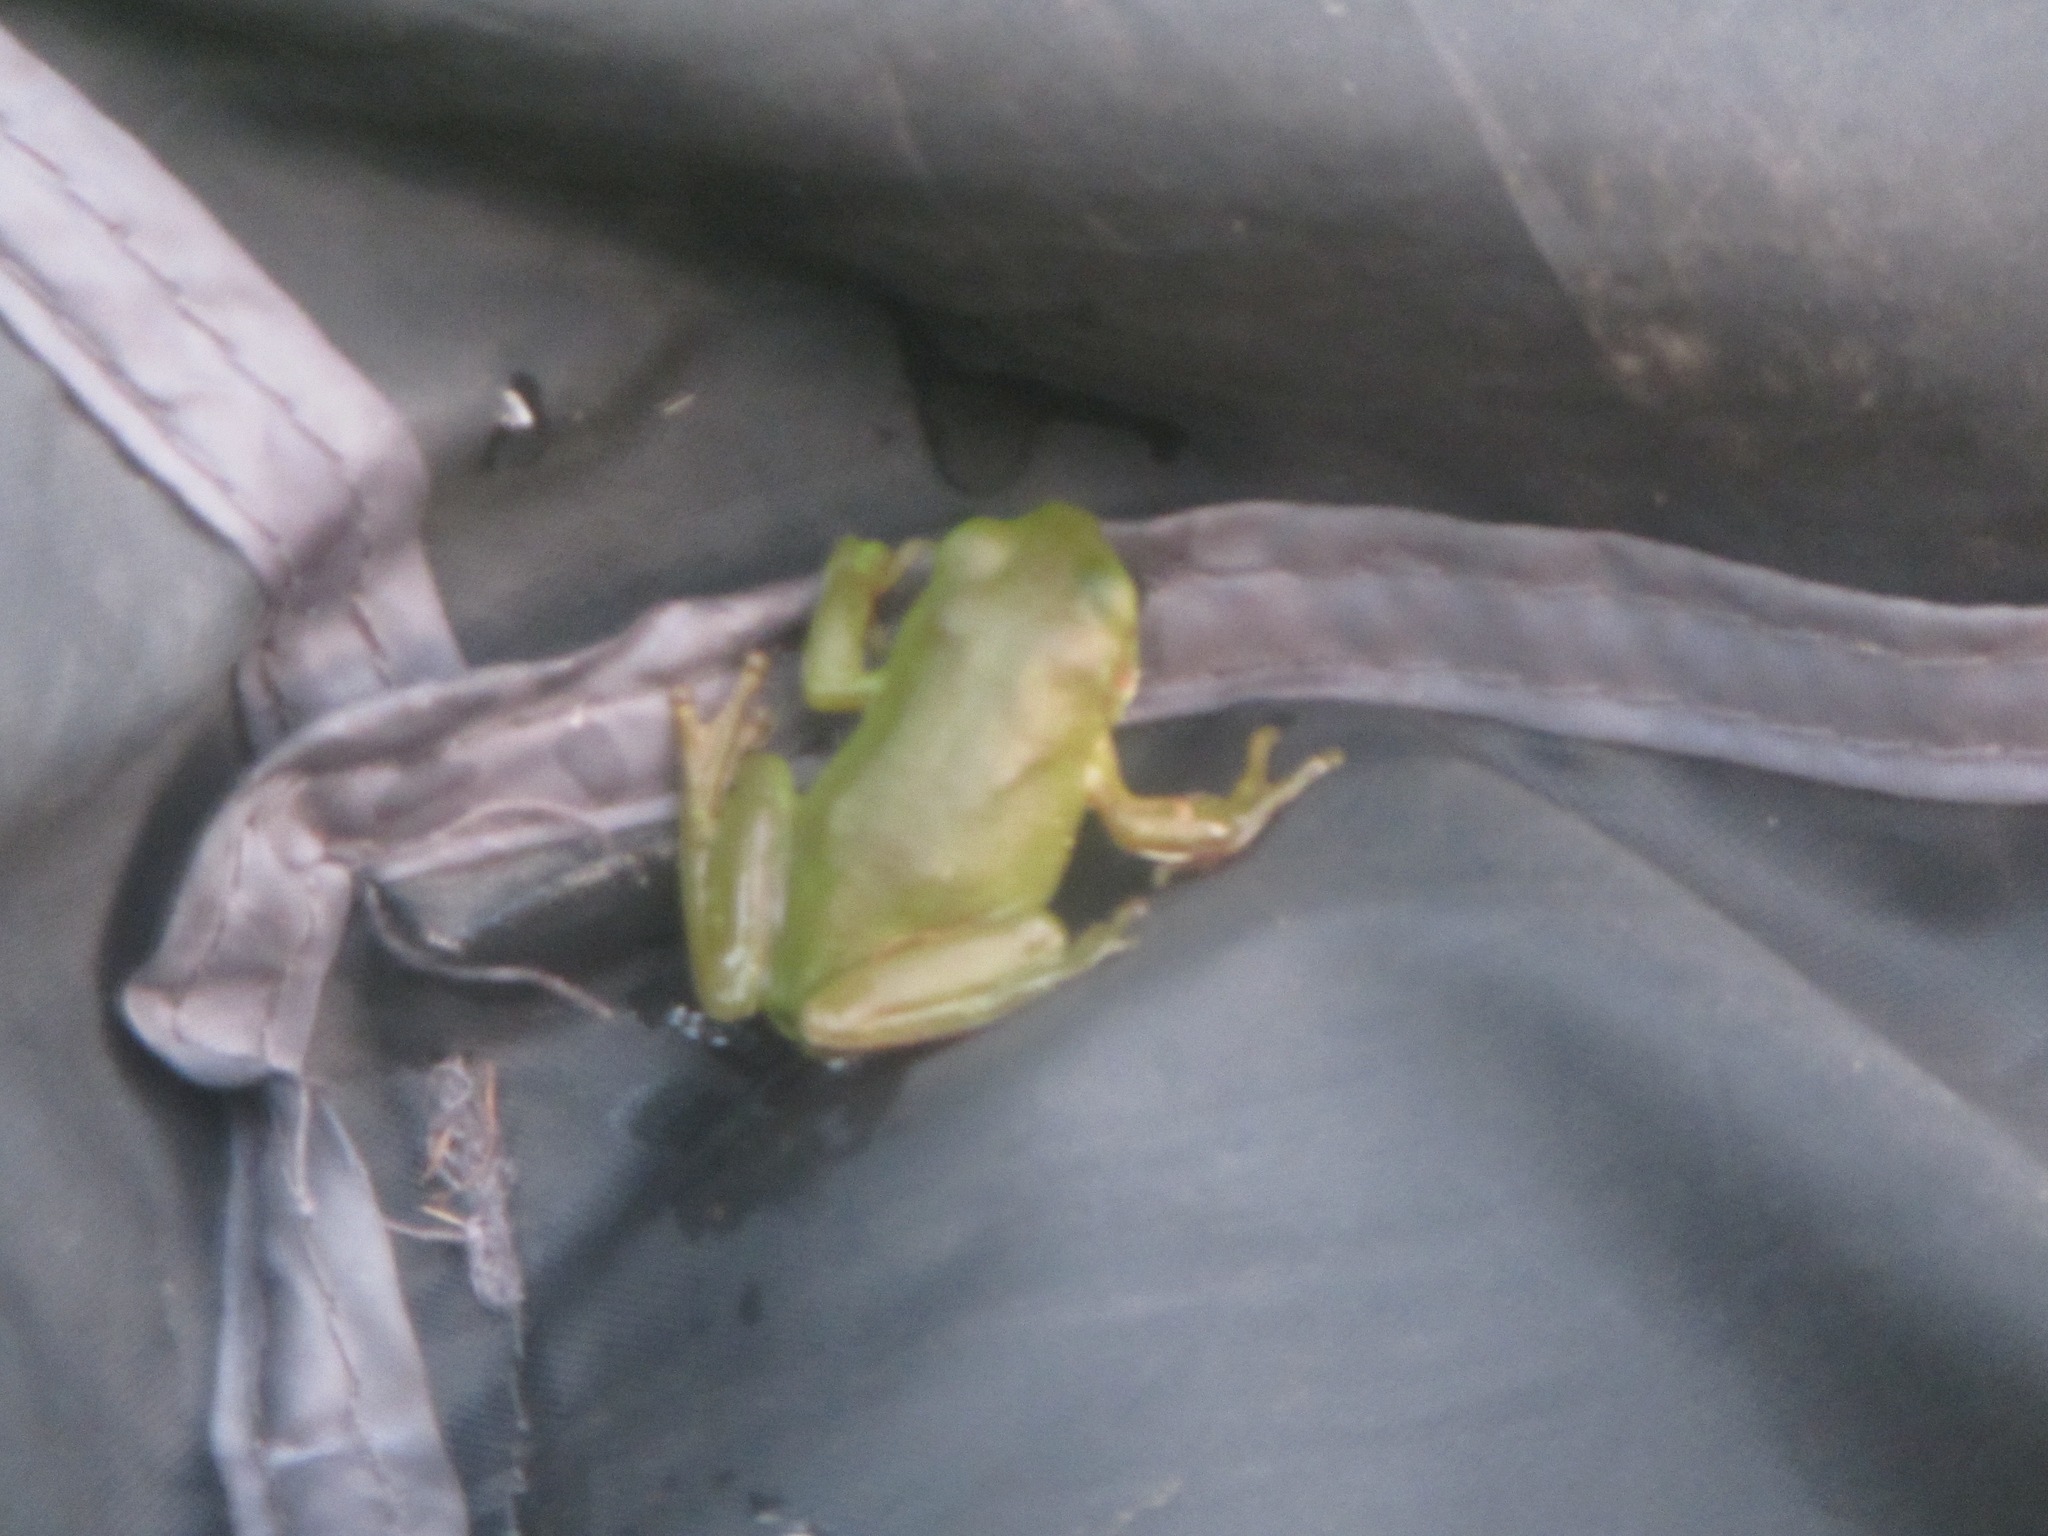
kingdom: Animalia
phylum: Chordata
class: Amphibia
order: Anura
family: Pelodryadidae
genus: Ranoidea
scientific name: Ranoidea caerulea
